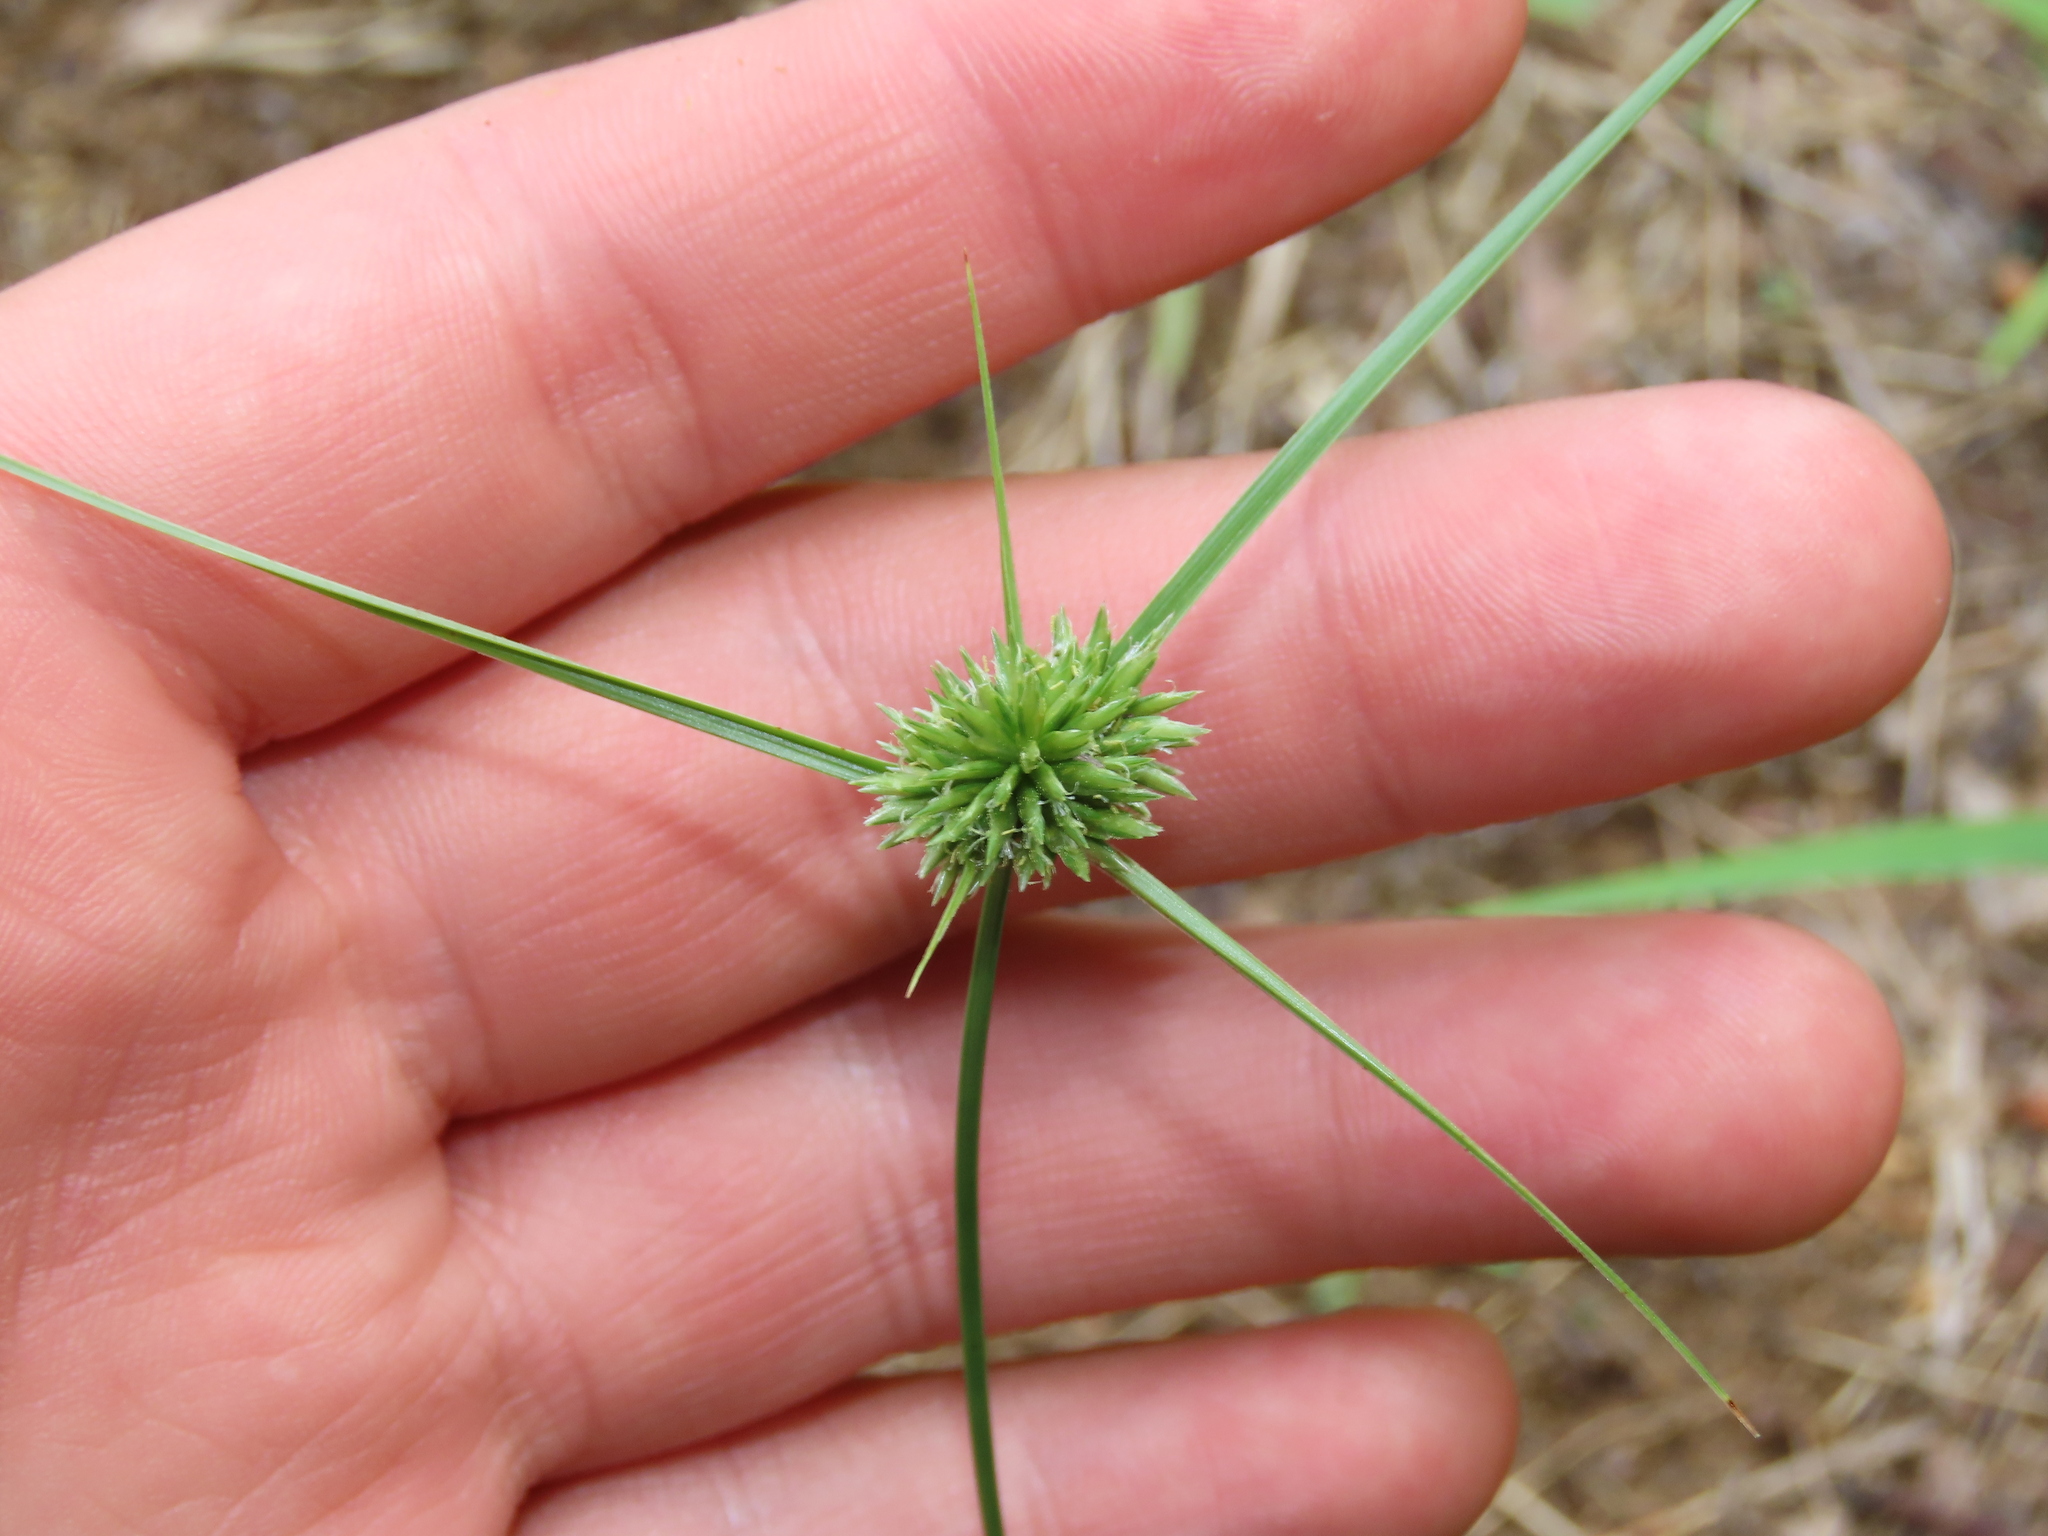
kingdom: Plantae
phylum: Tracheophyta
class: Liliopsida
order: Poales
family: Cyperaceae
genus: Cyperus
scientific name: Cyperus lupulinus
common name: Great plains flatsedge
